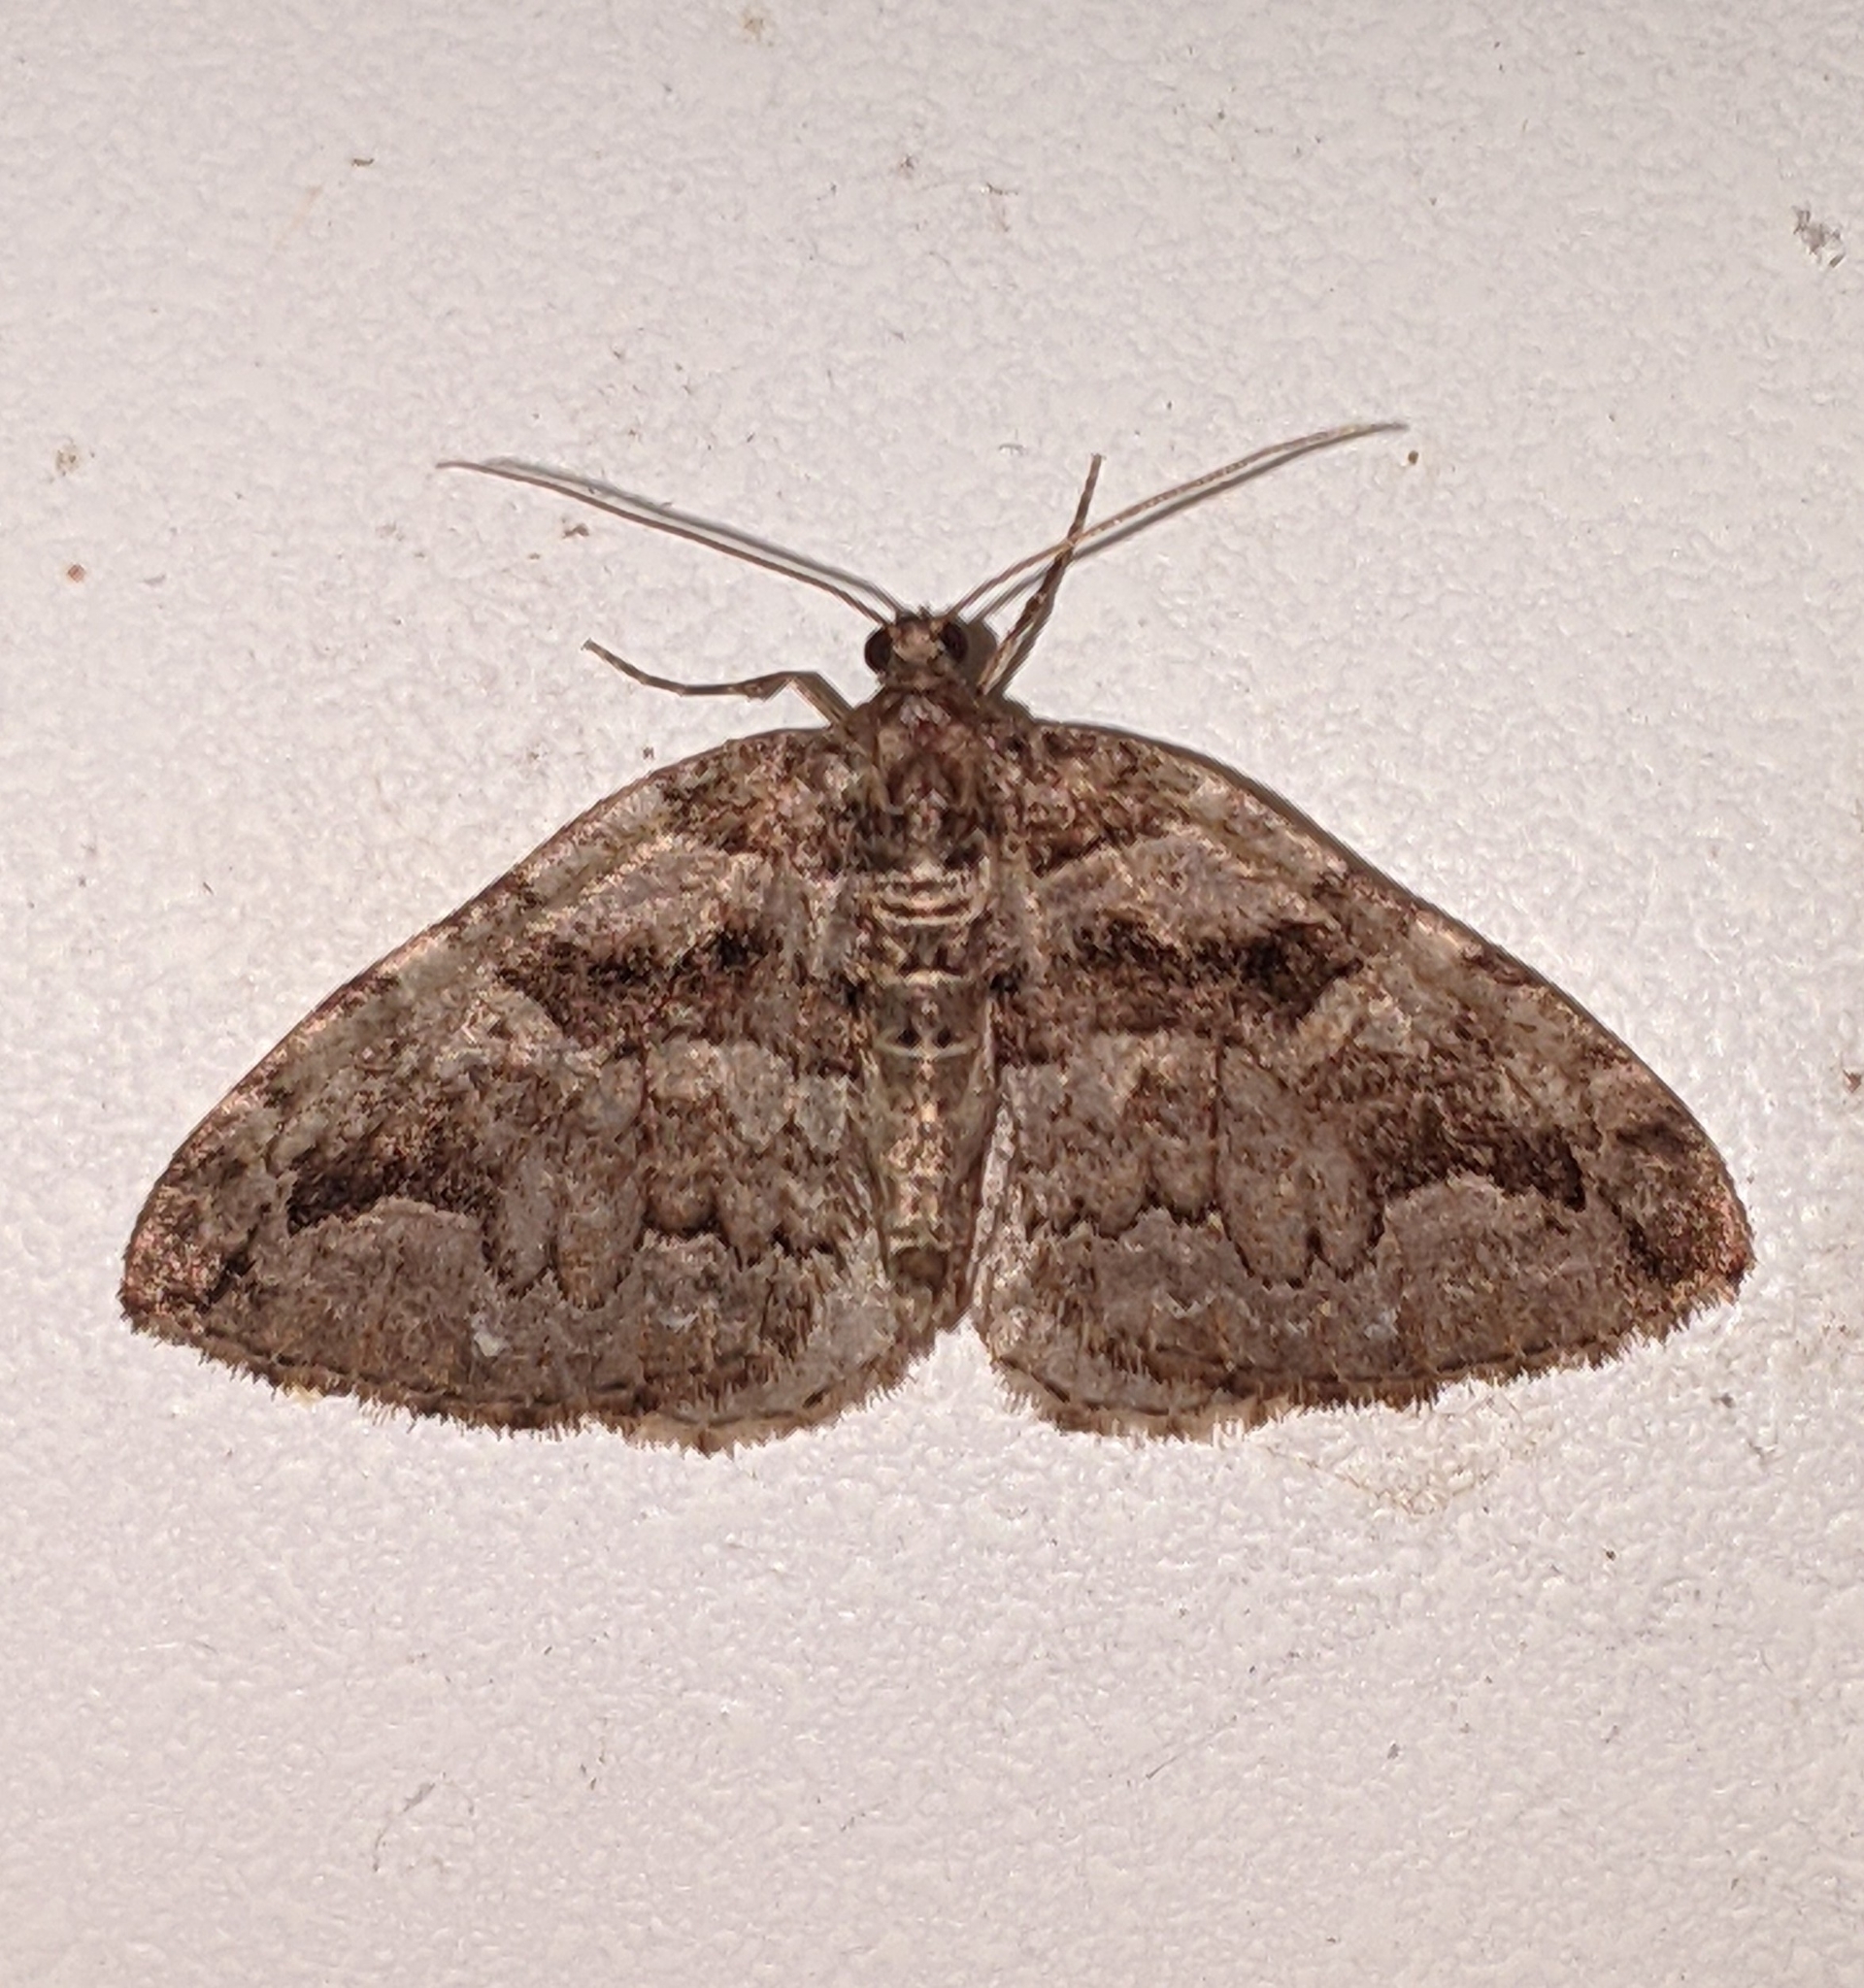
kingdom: Animalia
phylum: Arthropoda
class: Insecta
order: Lepidoptera
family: Geometridae
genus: Anticlea
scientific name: Anticlea vasiliata
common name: Variable carpet
